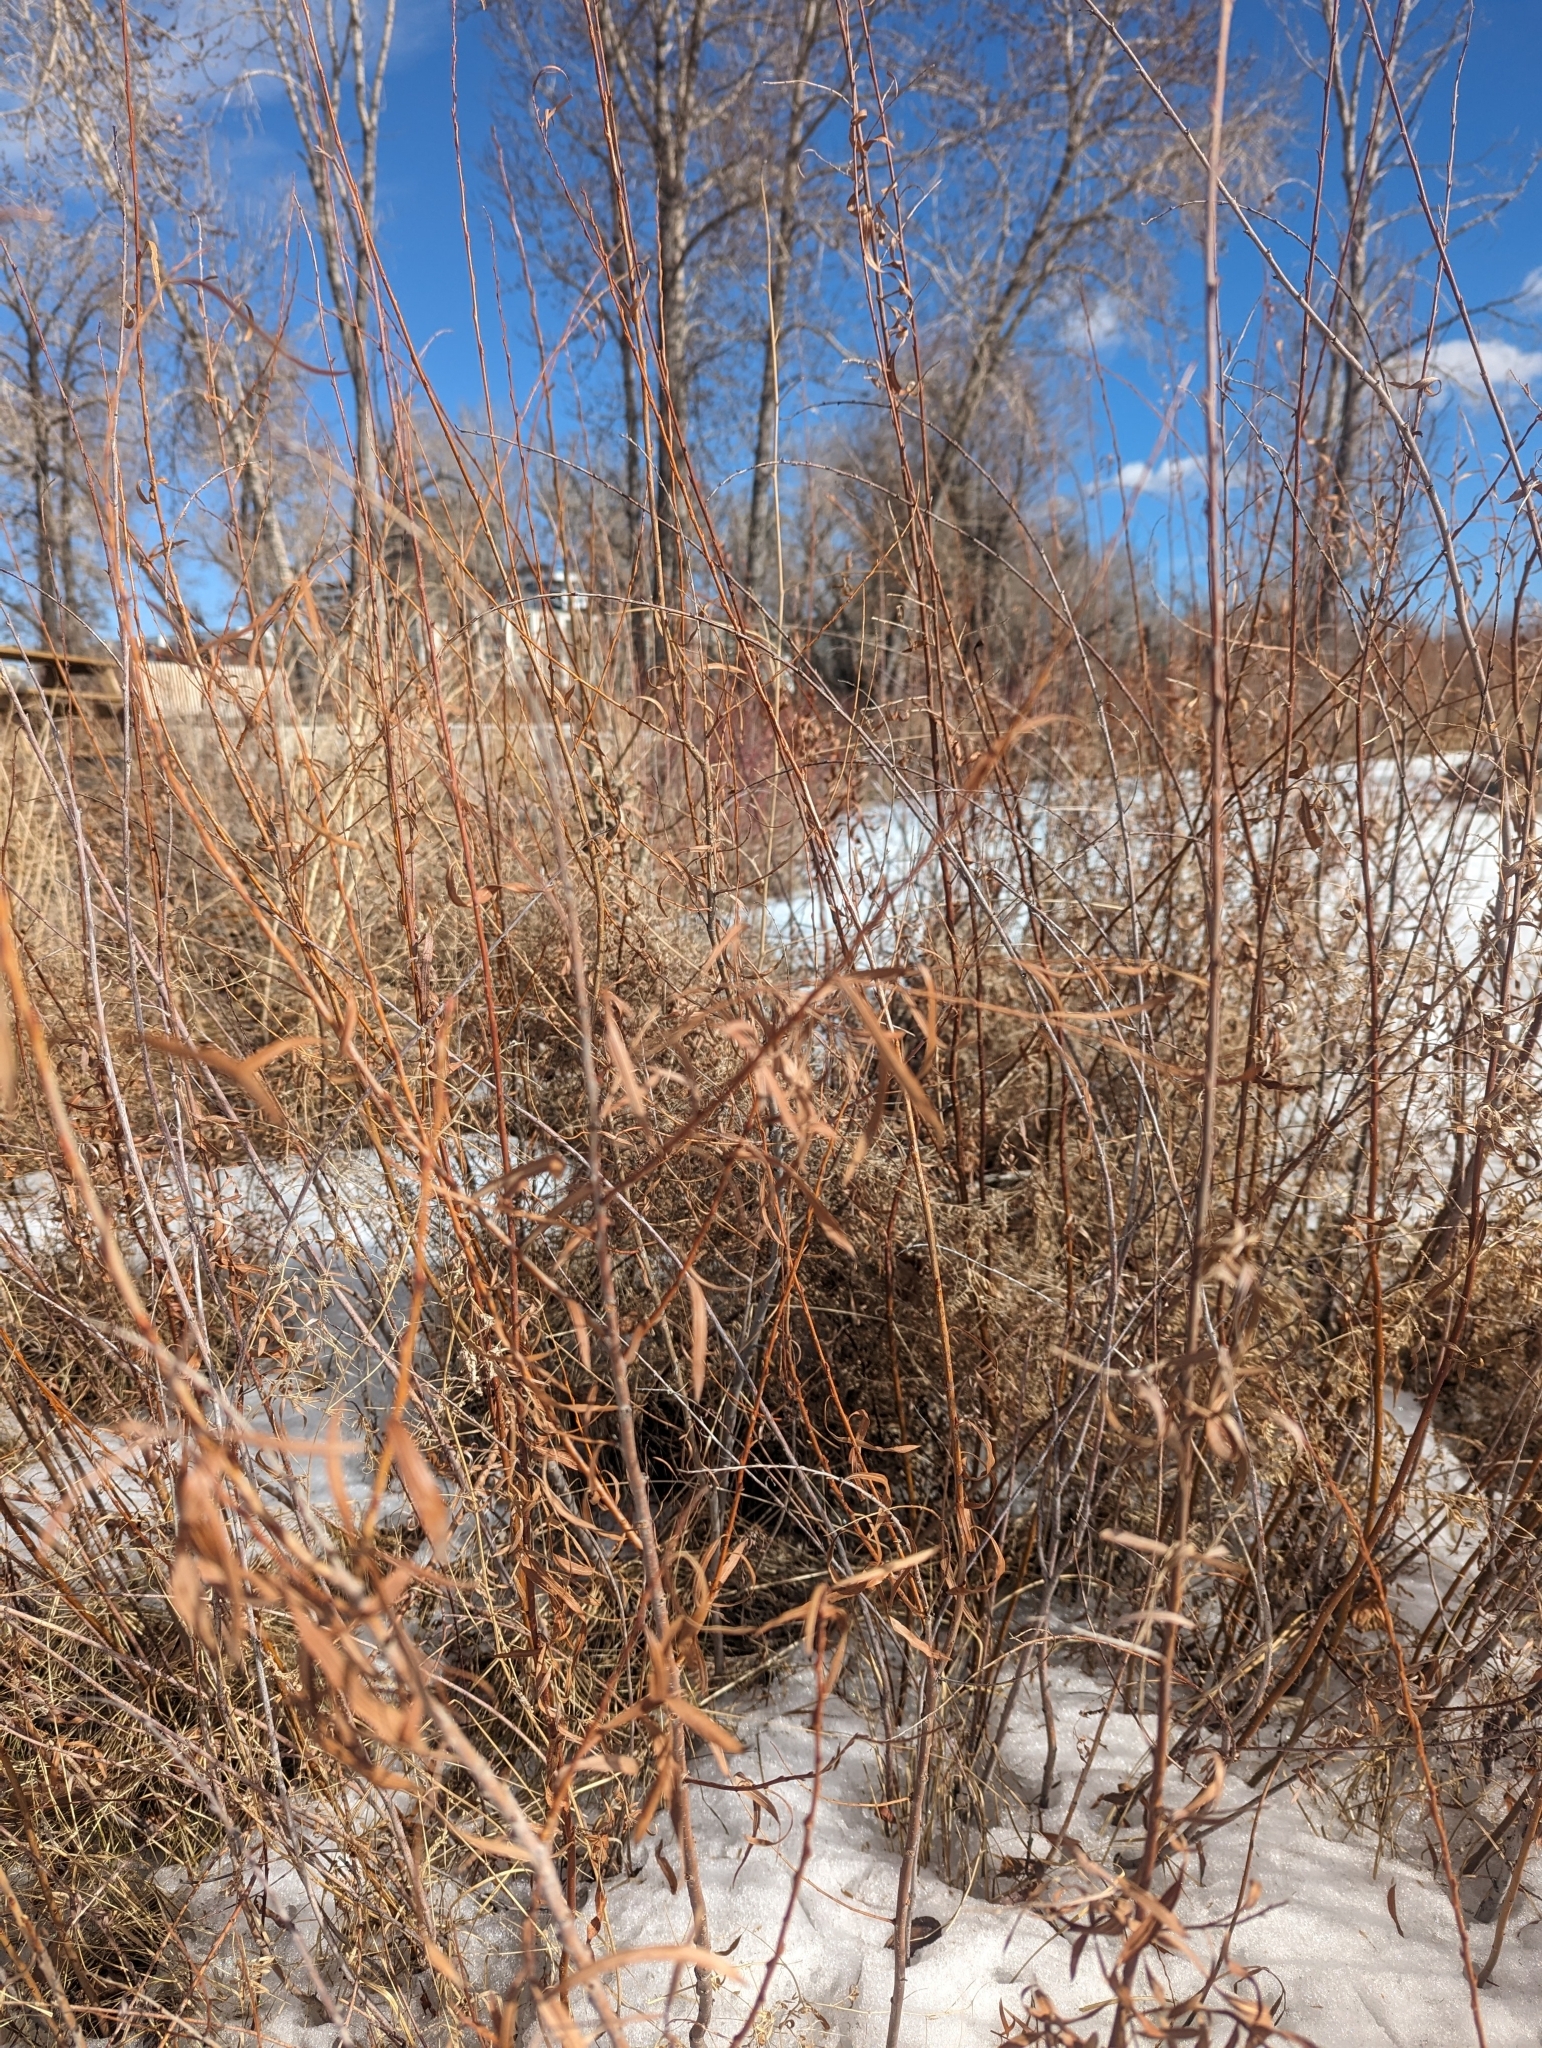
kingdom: Plantae
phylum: Tracheophyta
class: Magnoliopsida
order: Malpighiales
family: Salicaceae
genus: Salix
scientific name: Salix interior
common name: Sandbar willow
